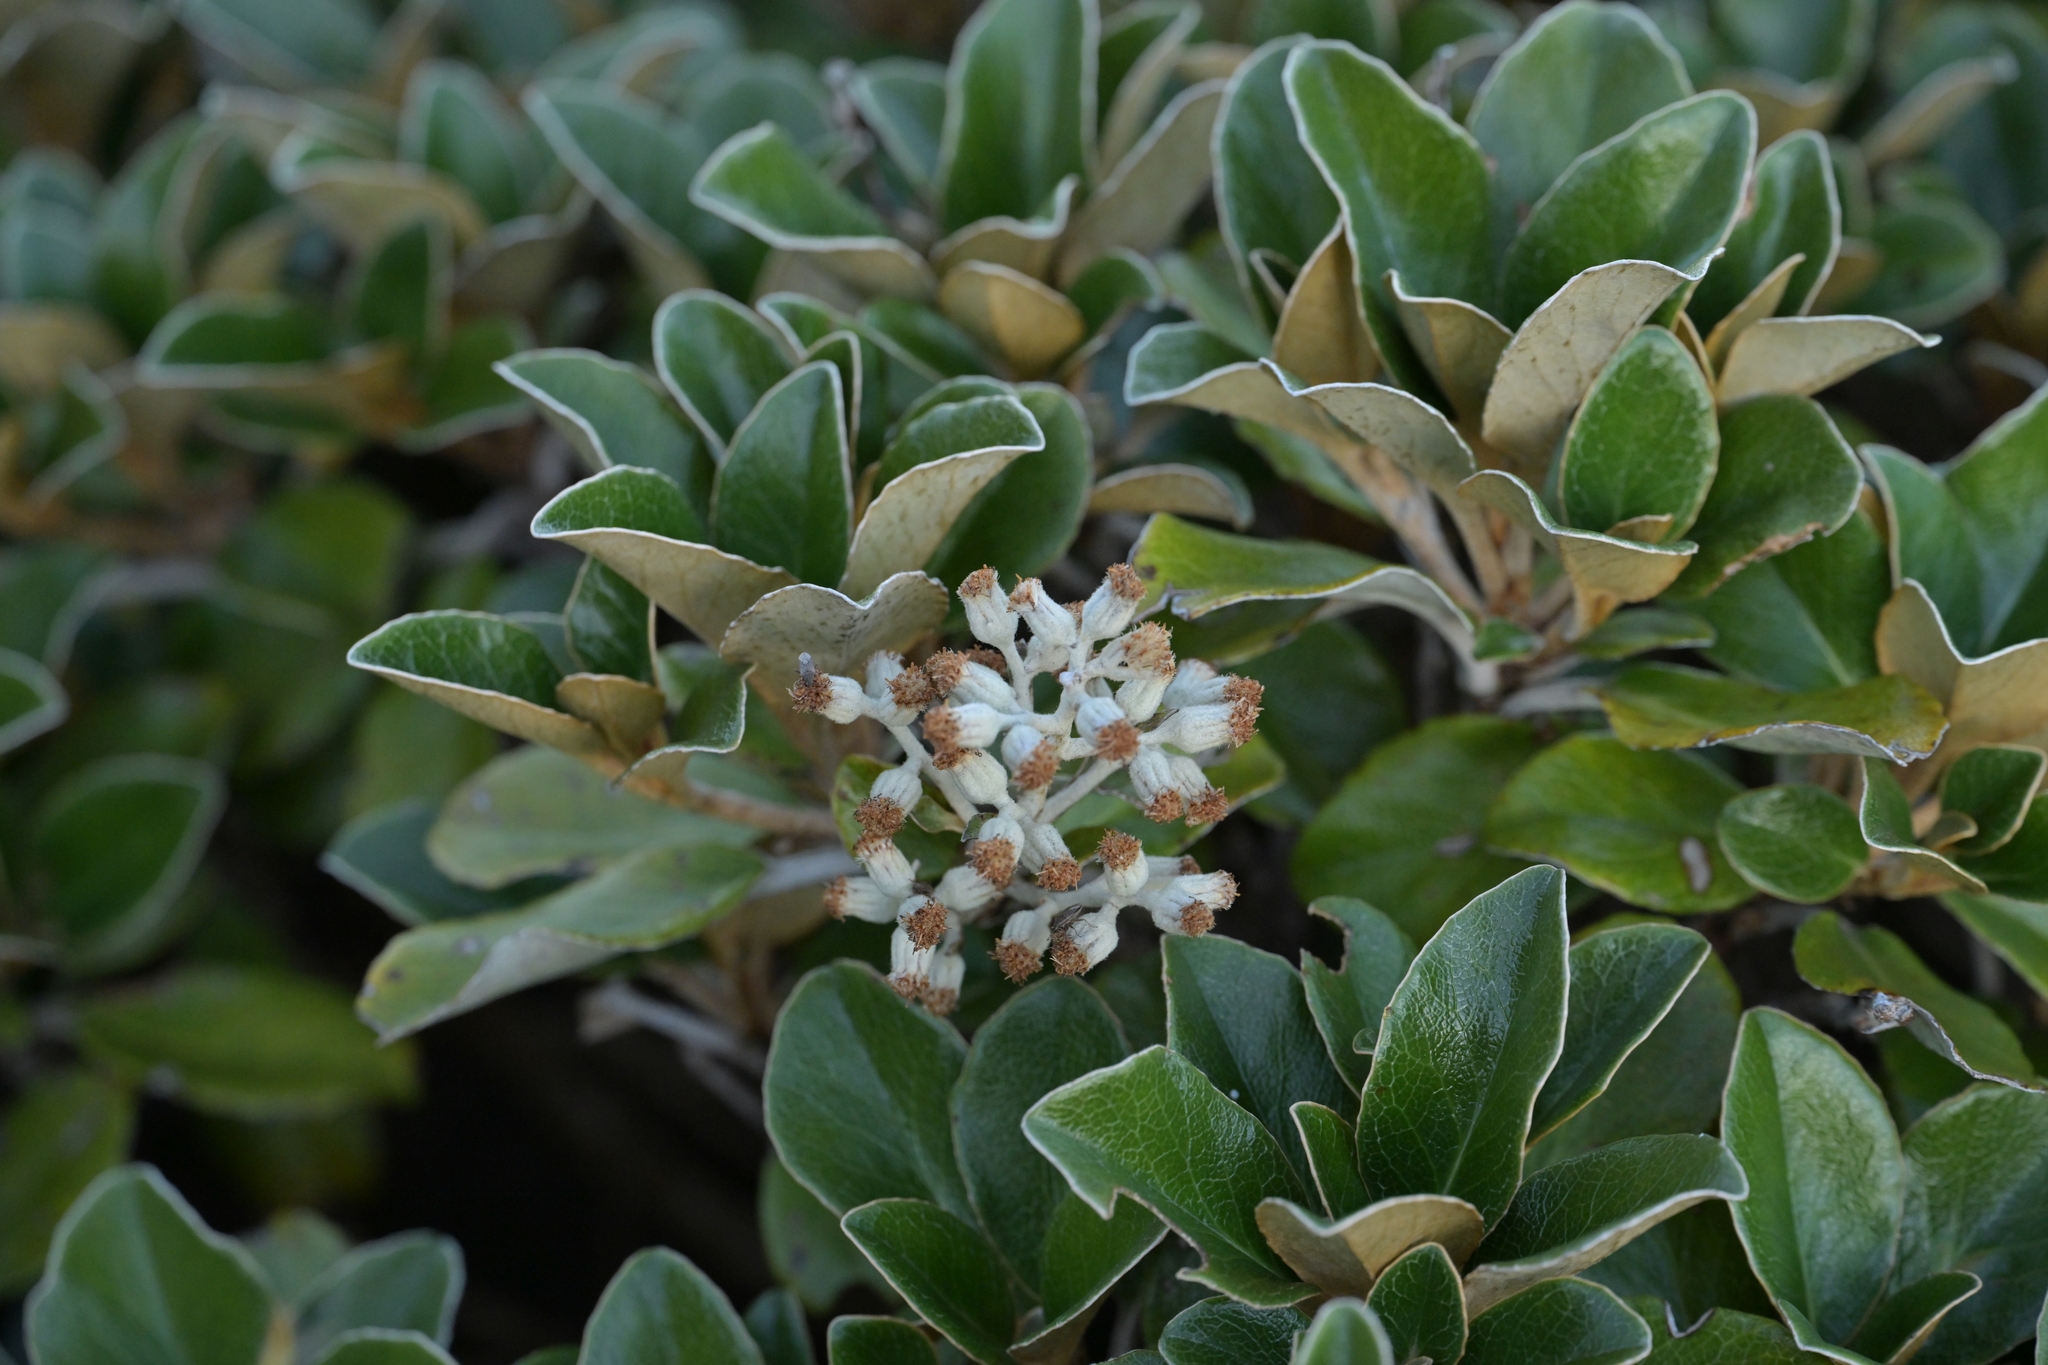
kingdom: Plantae
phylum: Tracheophyta
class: Magnoliopsida
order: Asterales
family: Asteraceae
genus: Brachyglottis
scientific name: Brachyglottis elaeagnifolia
